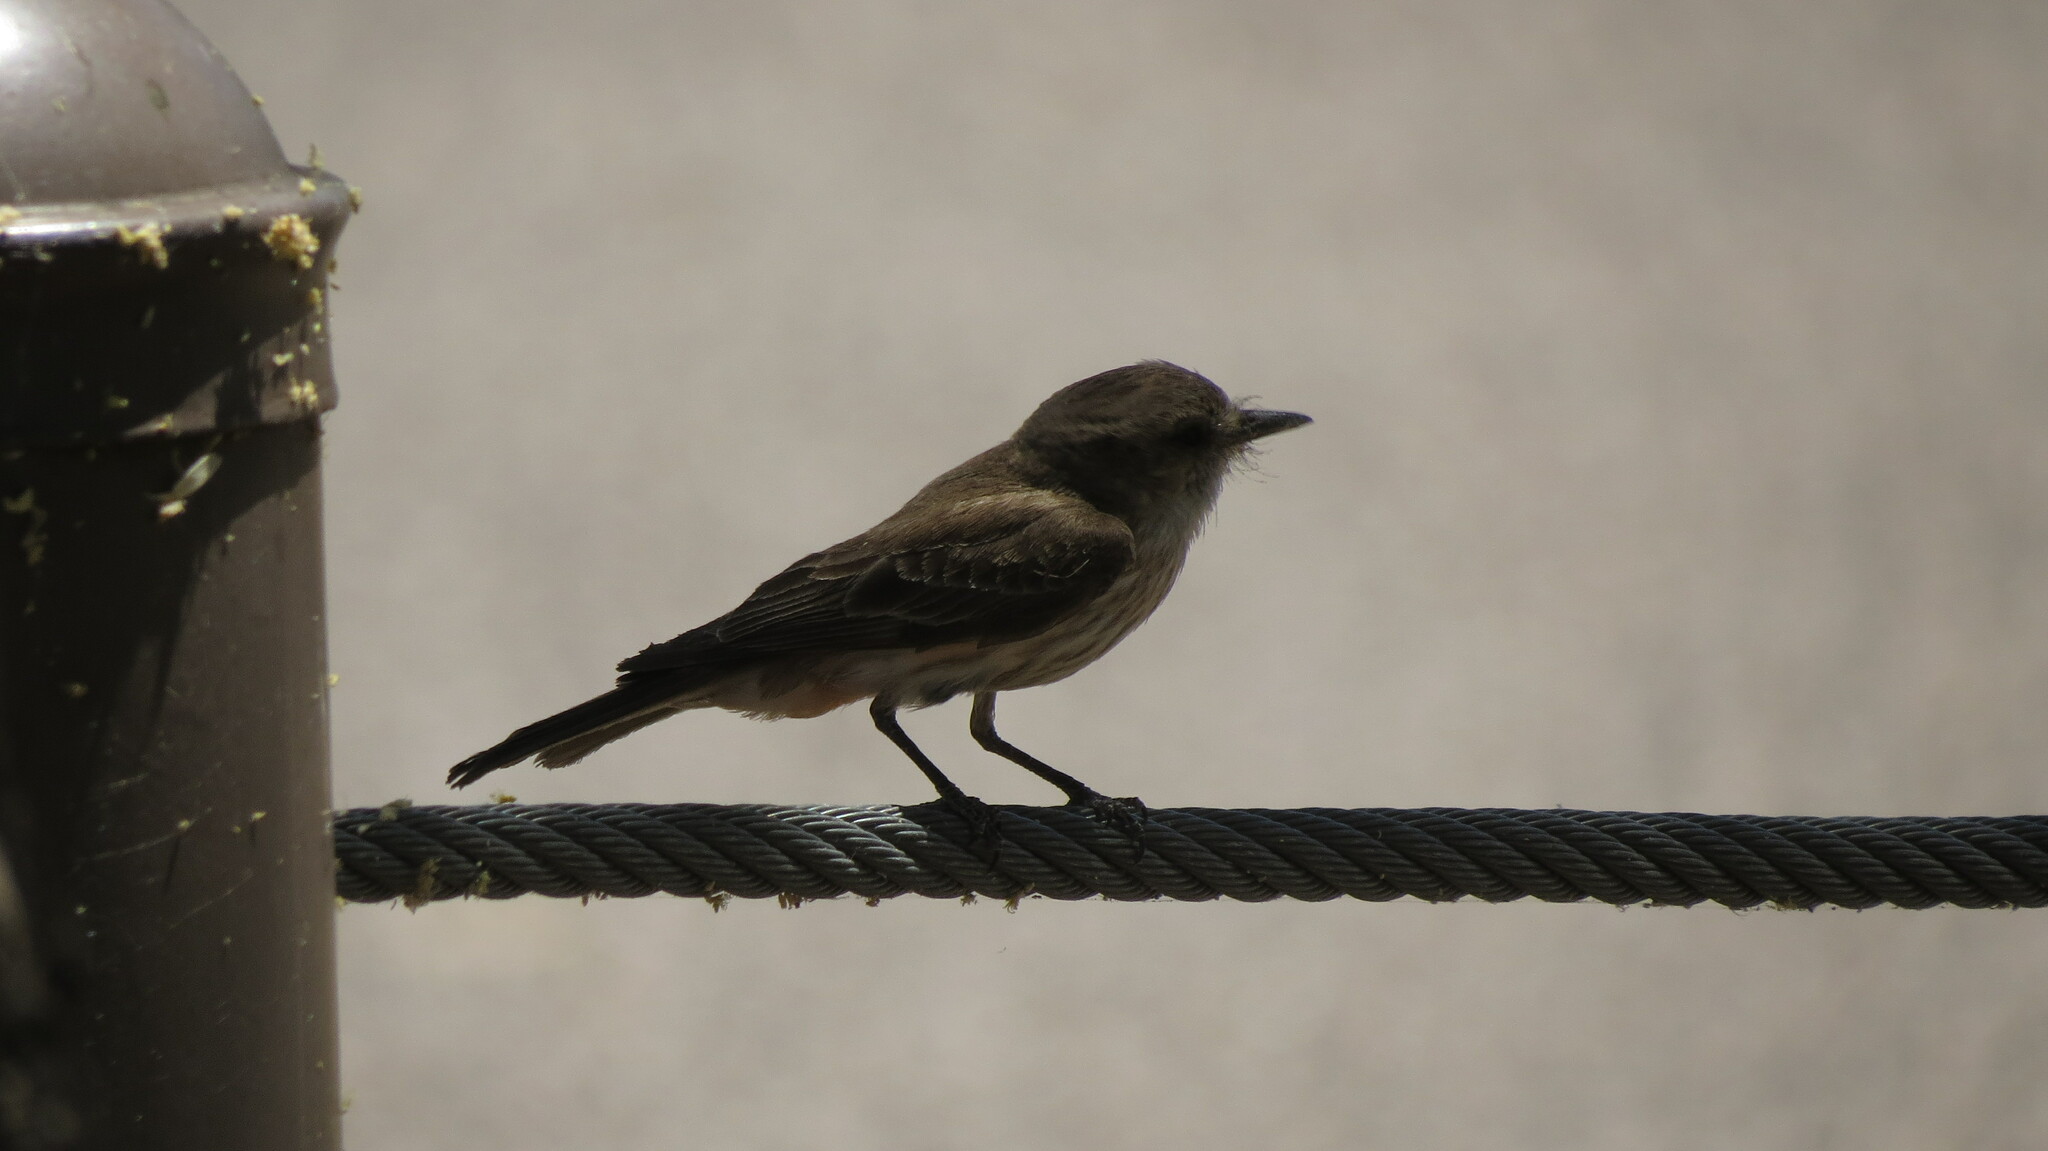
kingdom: Animalia
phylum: Chordata
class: Aves
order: Passeriformes
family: Tyrannidae
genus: Pyrocephalus
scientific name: Pyrocephalus rubinus
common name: Vermilion flycatcher
